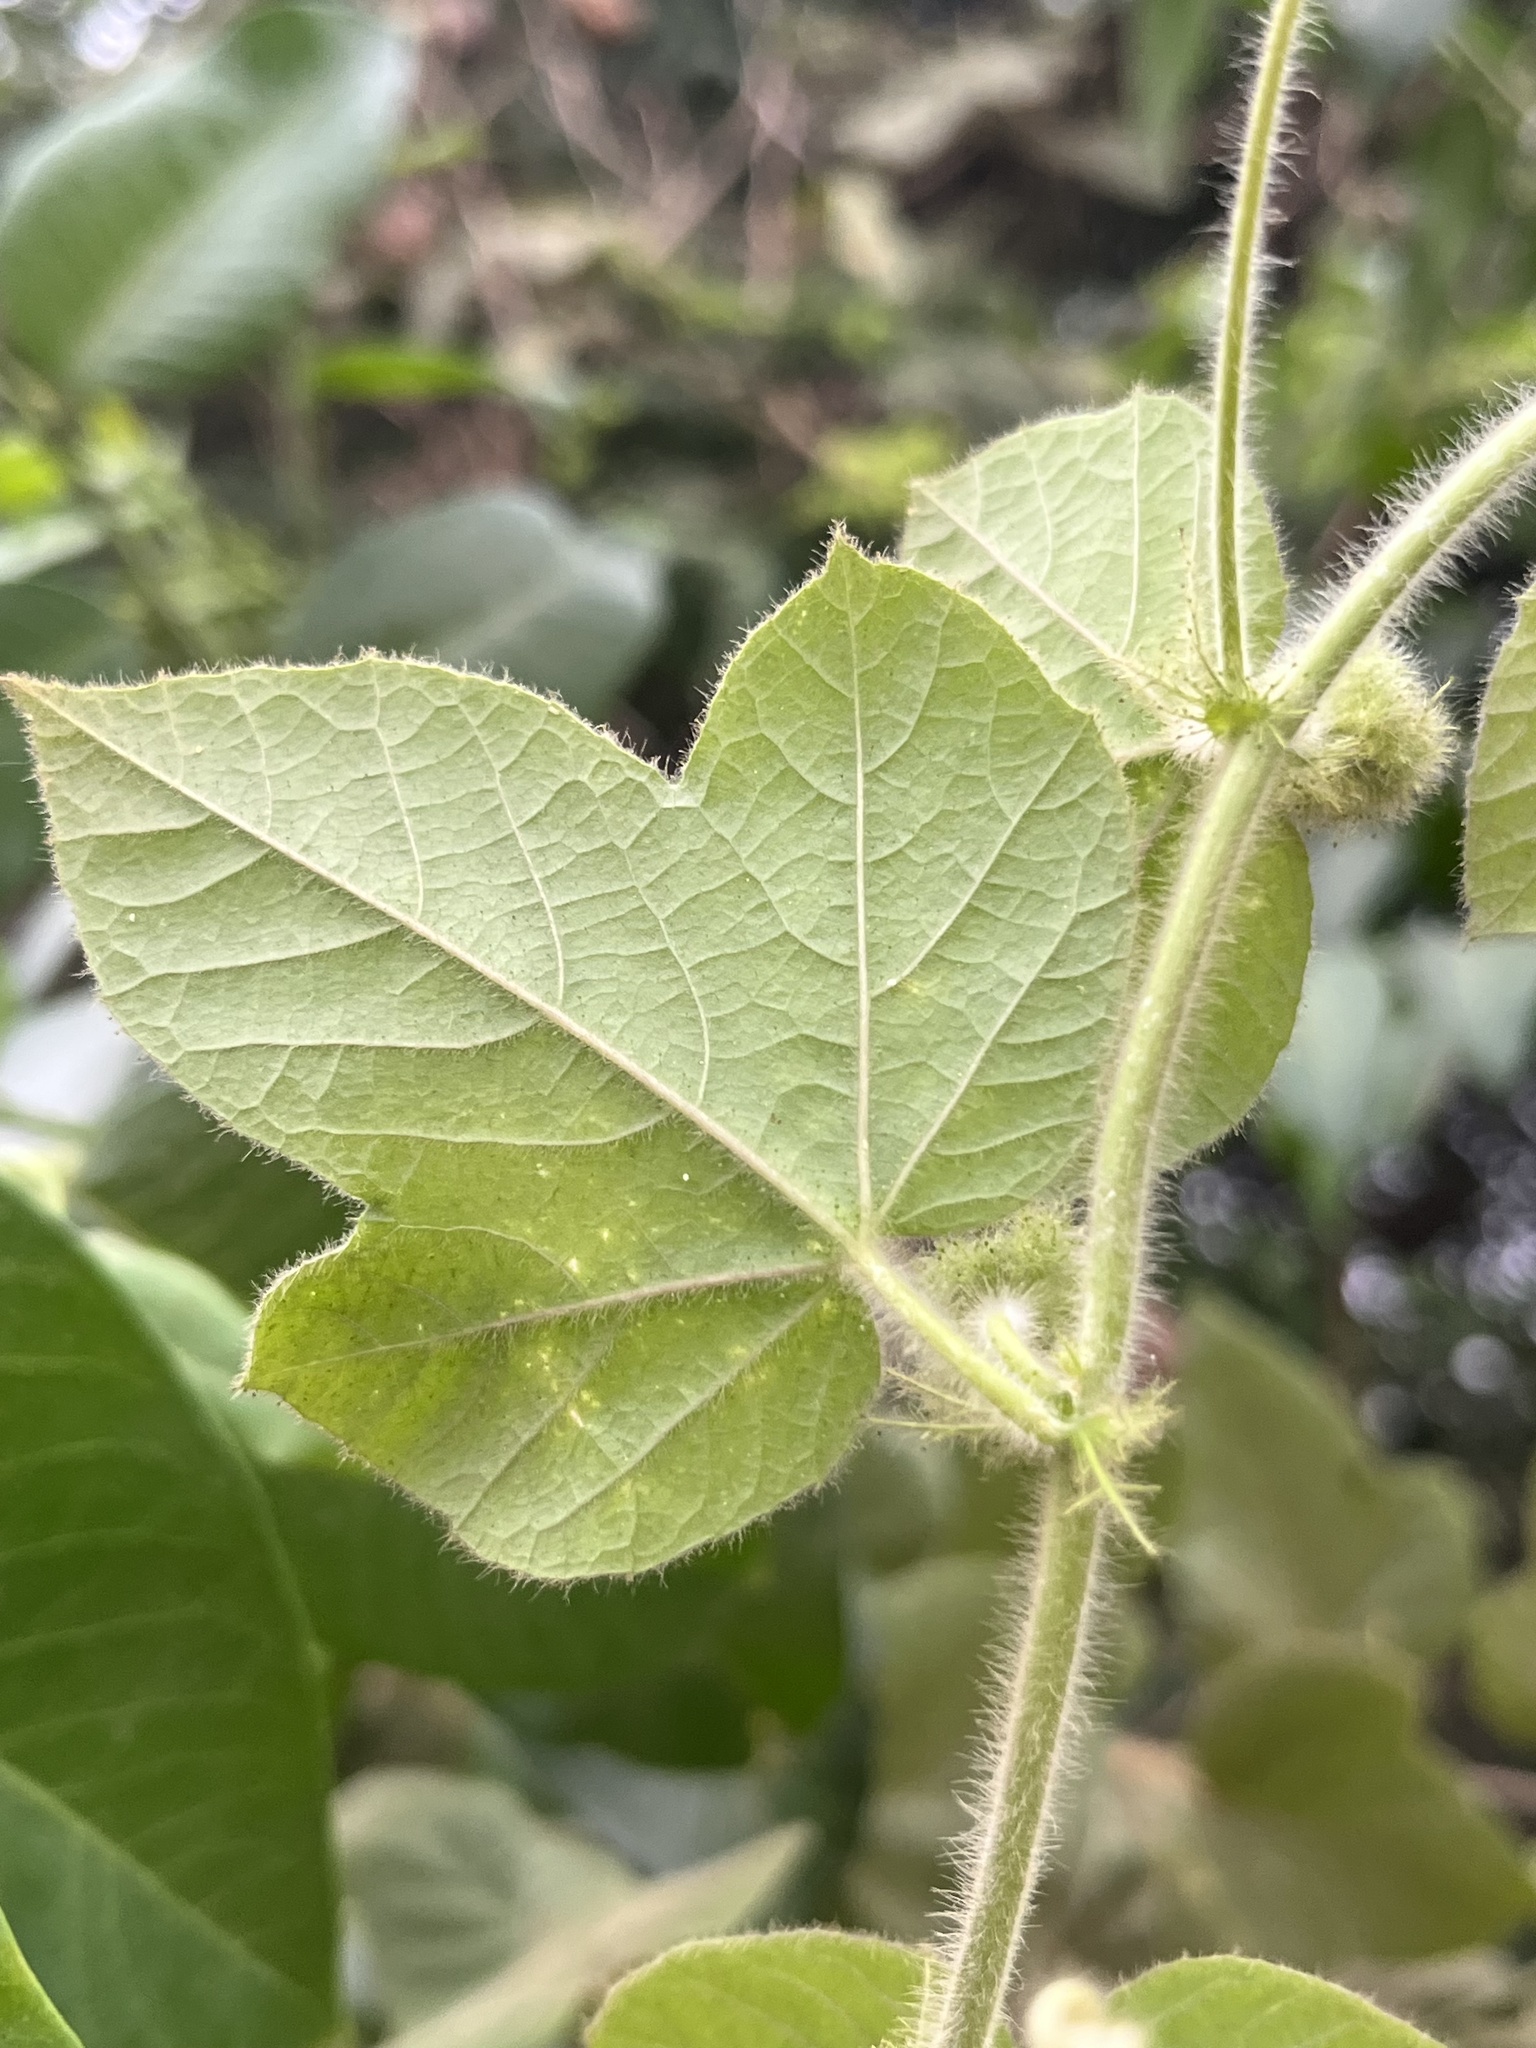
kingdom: Plantae
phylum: Tracheophyta
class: Magnoliopsida
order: Malpighiales
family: Passifloraceae
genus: Passiflora
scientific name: Passiflora foetida
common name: Fetid passionflower
